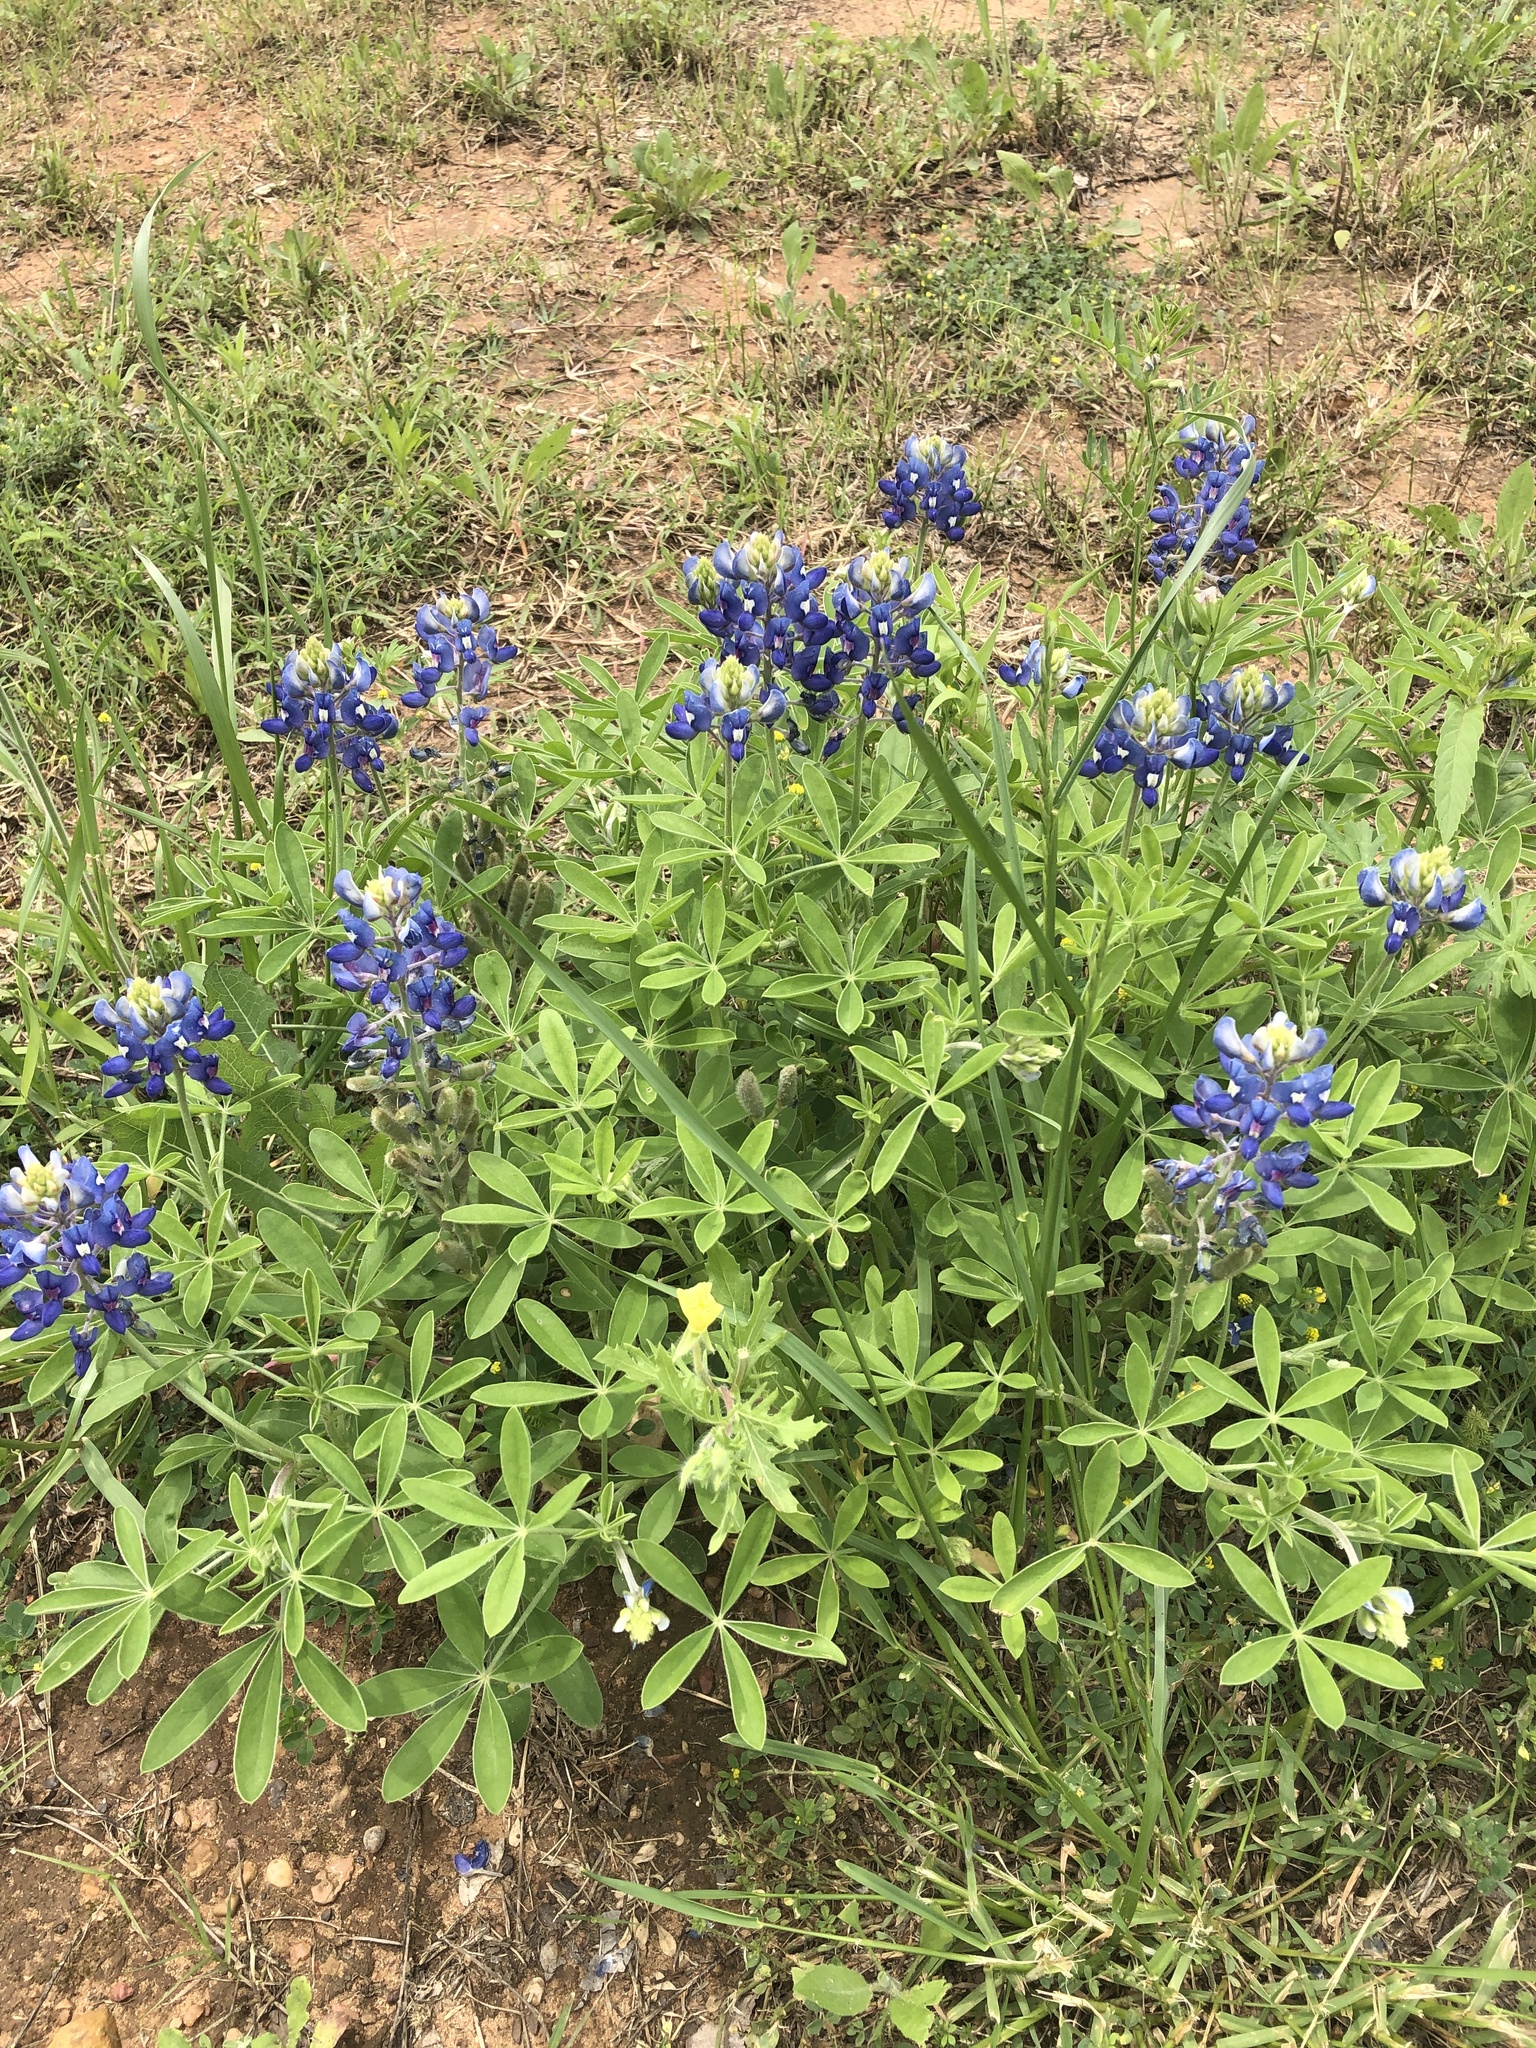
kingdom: Plantae
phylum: Tracheophyta
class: Magnoliopsida
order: Fabales
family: Fabaceae
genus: Lupinus
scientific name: Lupinus texensis
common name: Texas bluebonnet
